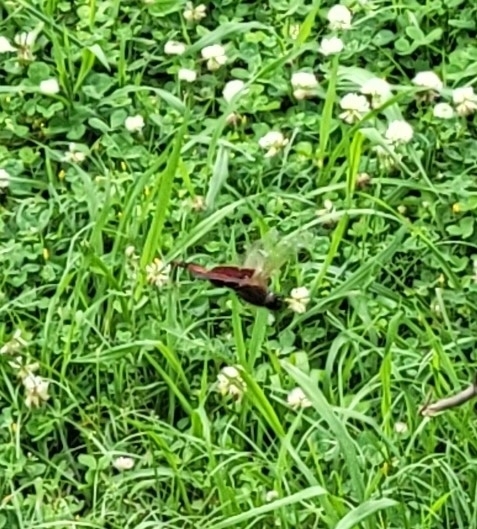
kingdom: Animalia
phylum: Arthropoda
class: Insecta
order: Odonata
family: Libellulidae
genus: Tramea
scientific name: Tramea carolina
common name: Carolina saddlebags
